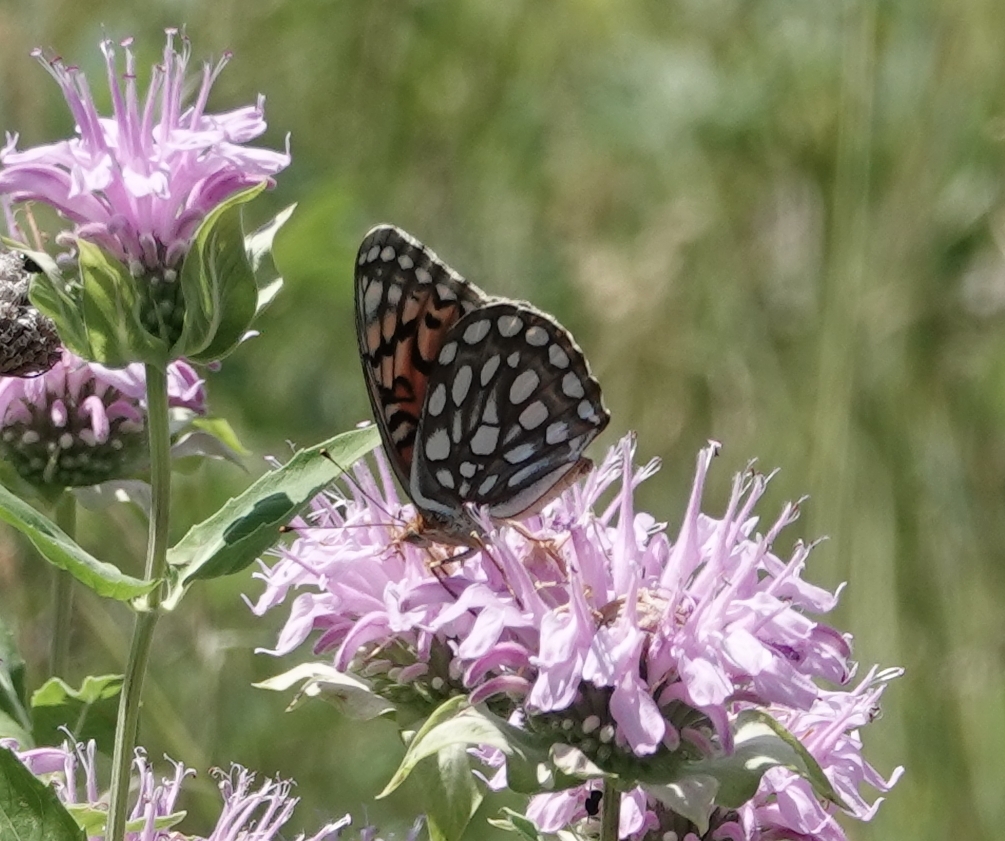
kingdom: Animalia
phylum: Arthropoda
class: Insecta
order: Lepidoptera
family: Nymphalidae
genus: Speyeria
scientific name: Speyeria edwardsii
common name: Edwards' fritillary
